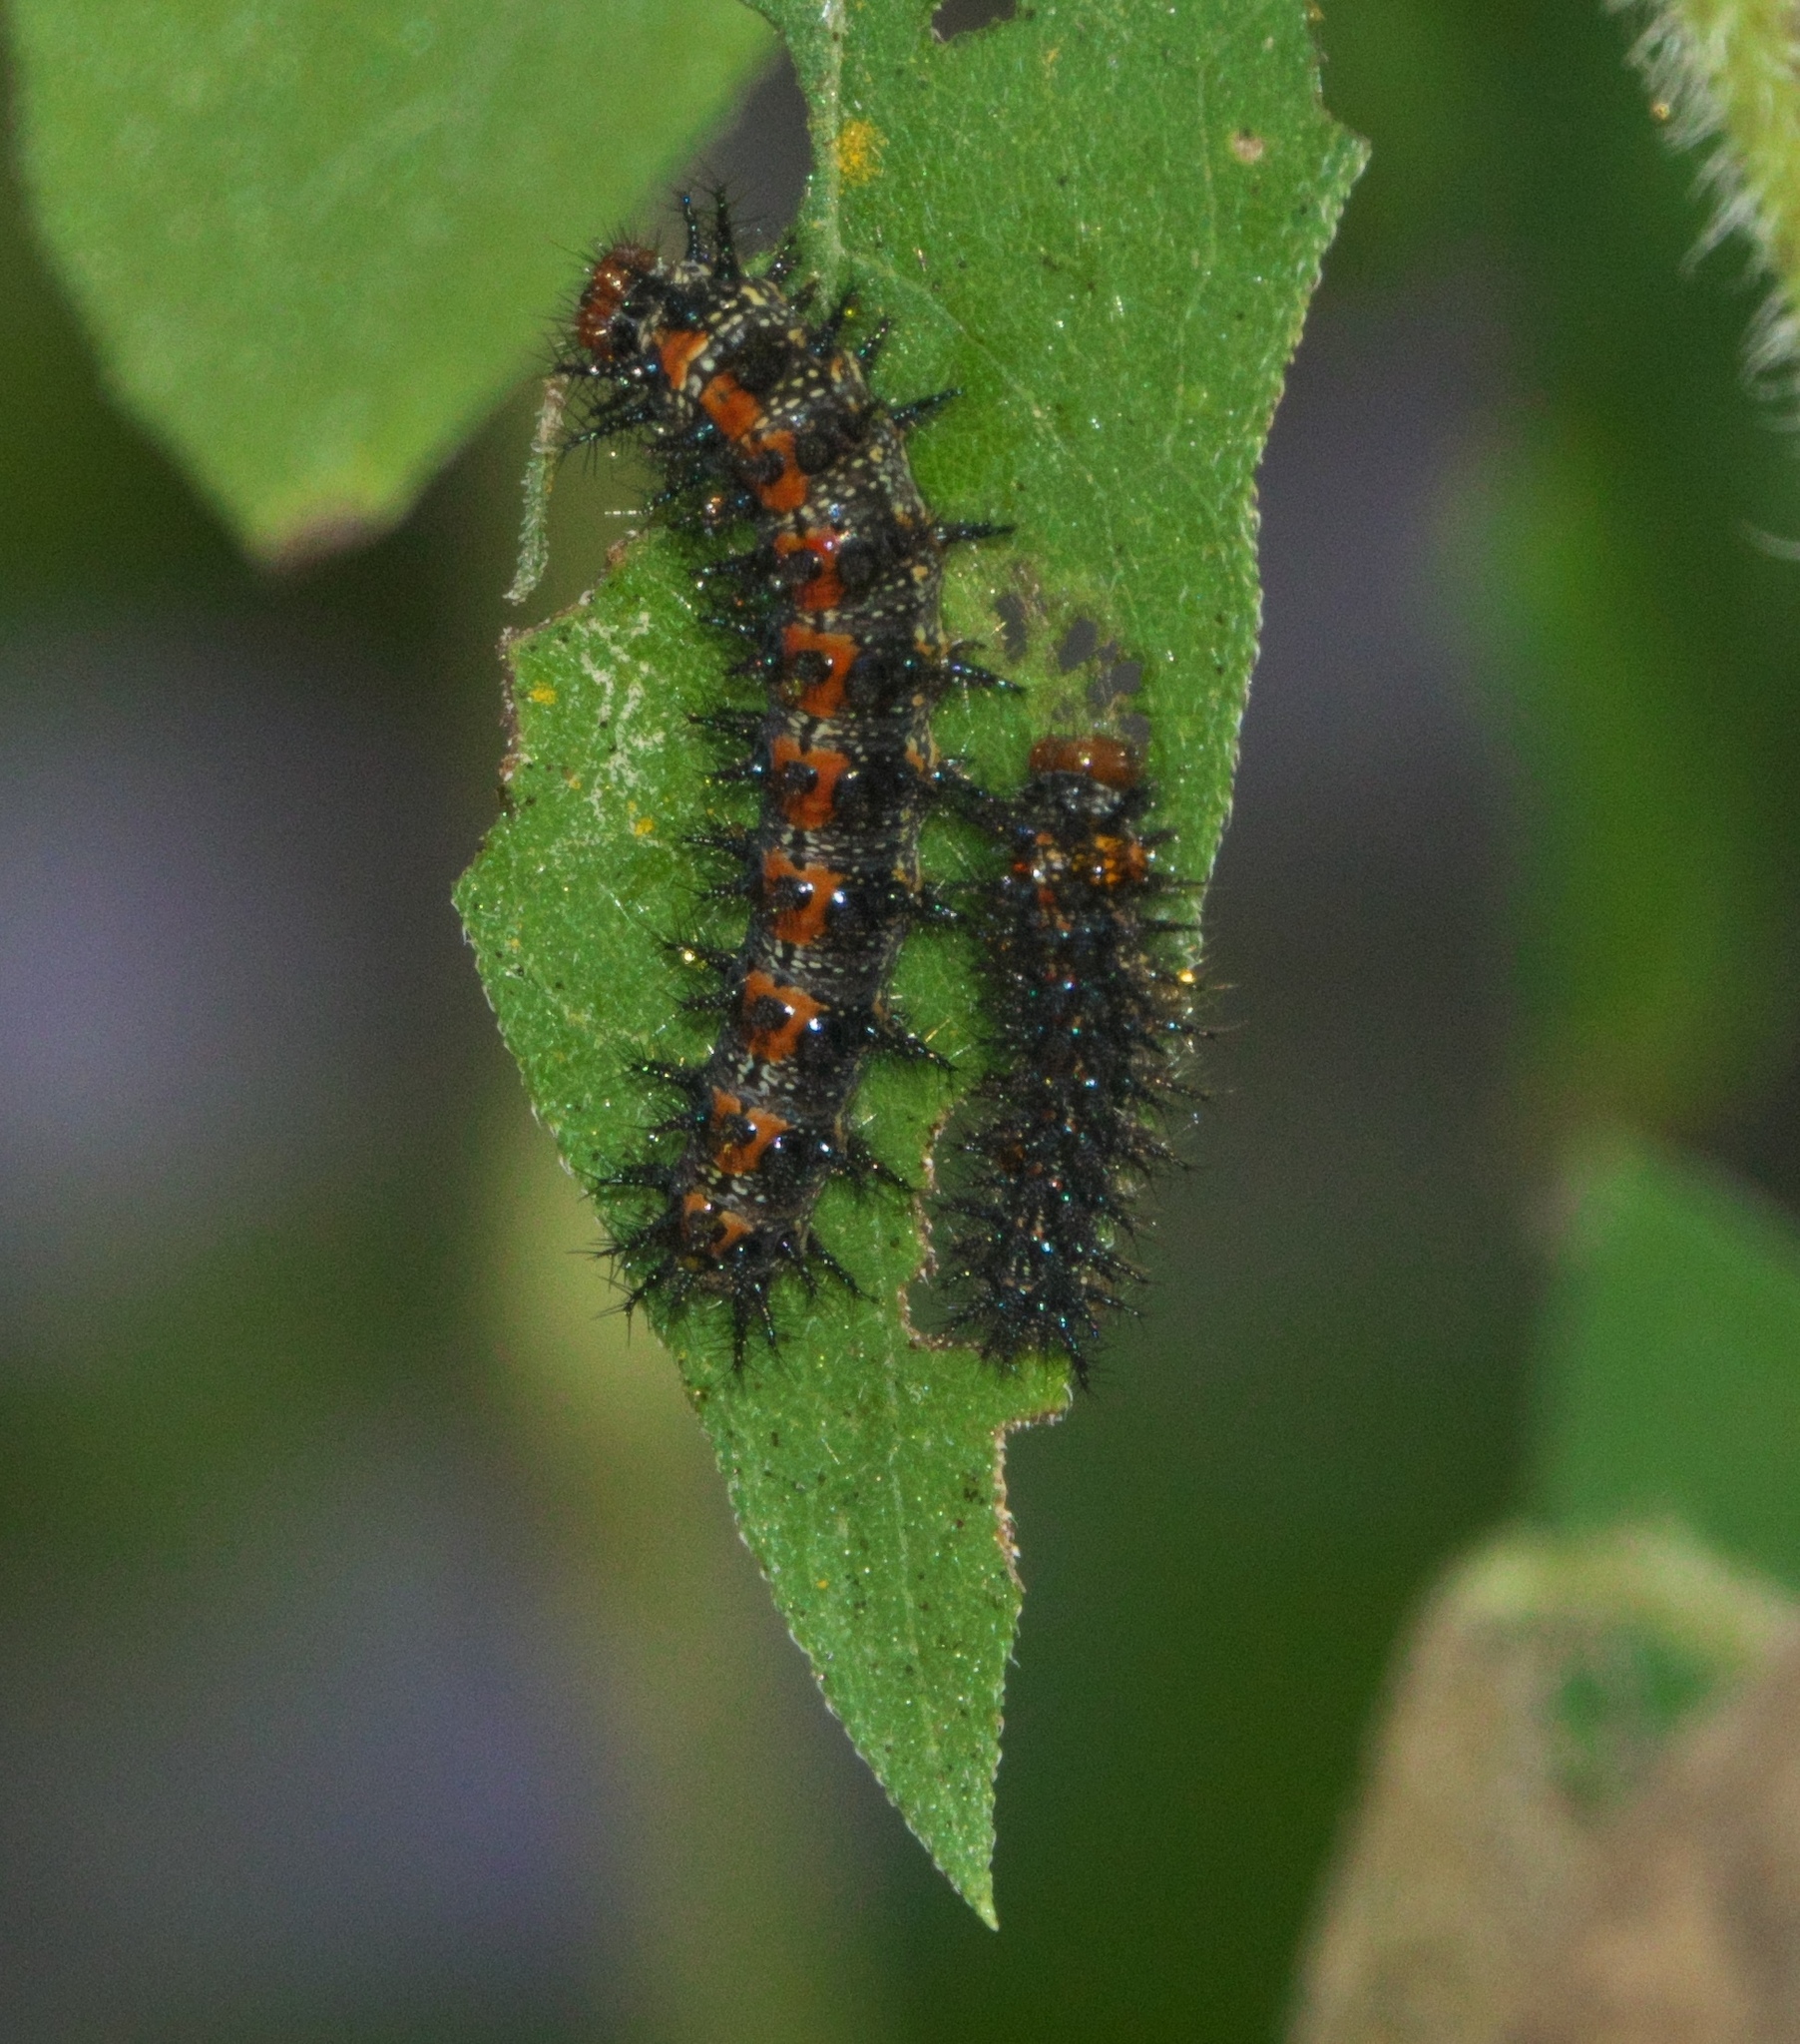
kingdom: Animalia
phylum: Arthropoda
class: Insecta
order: Lepidoptera
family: Nymphalidae
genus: Chlosyne
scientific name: Chlosyne lacinia
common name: Bordered patch
